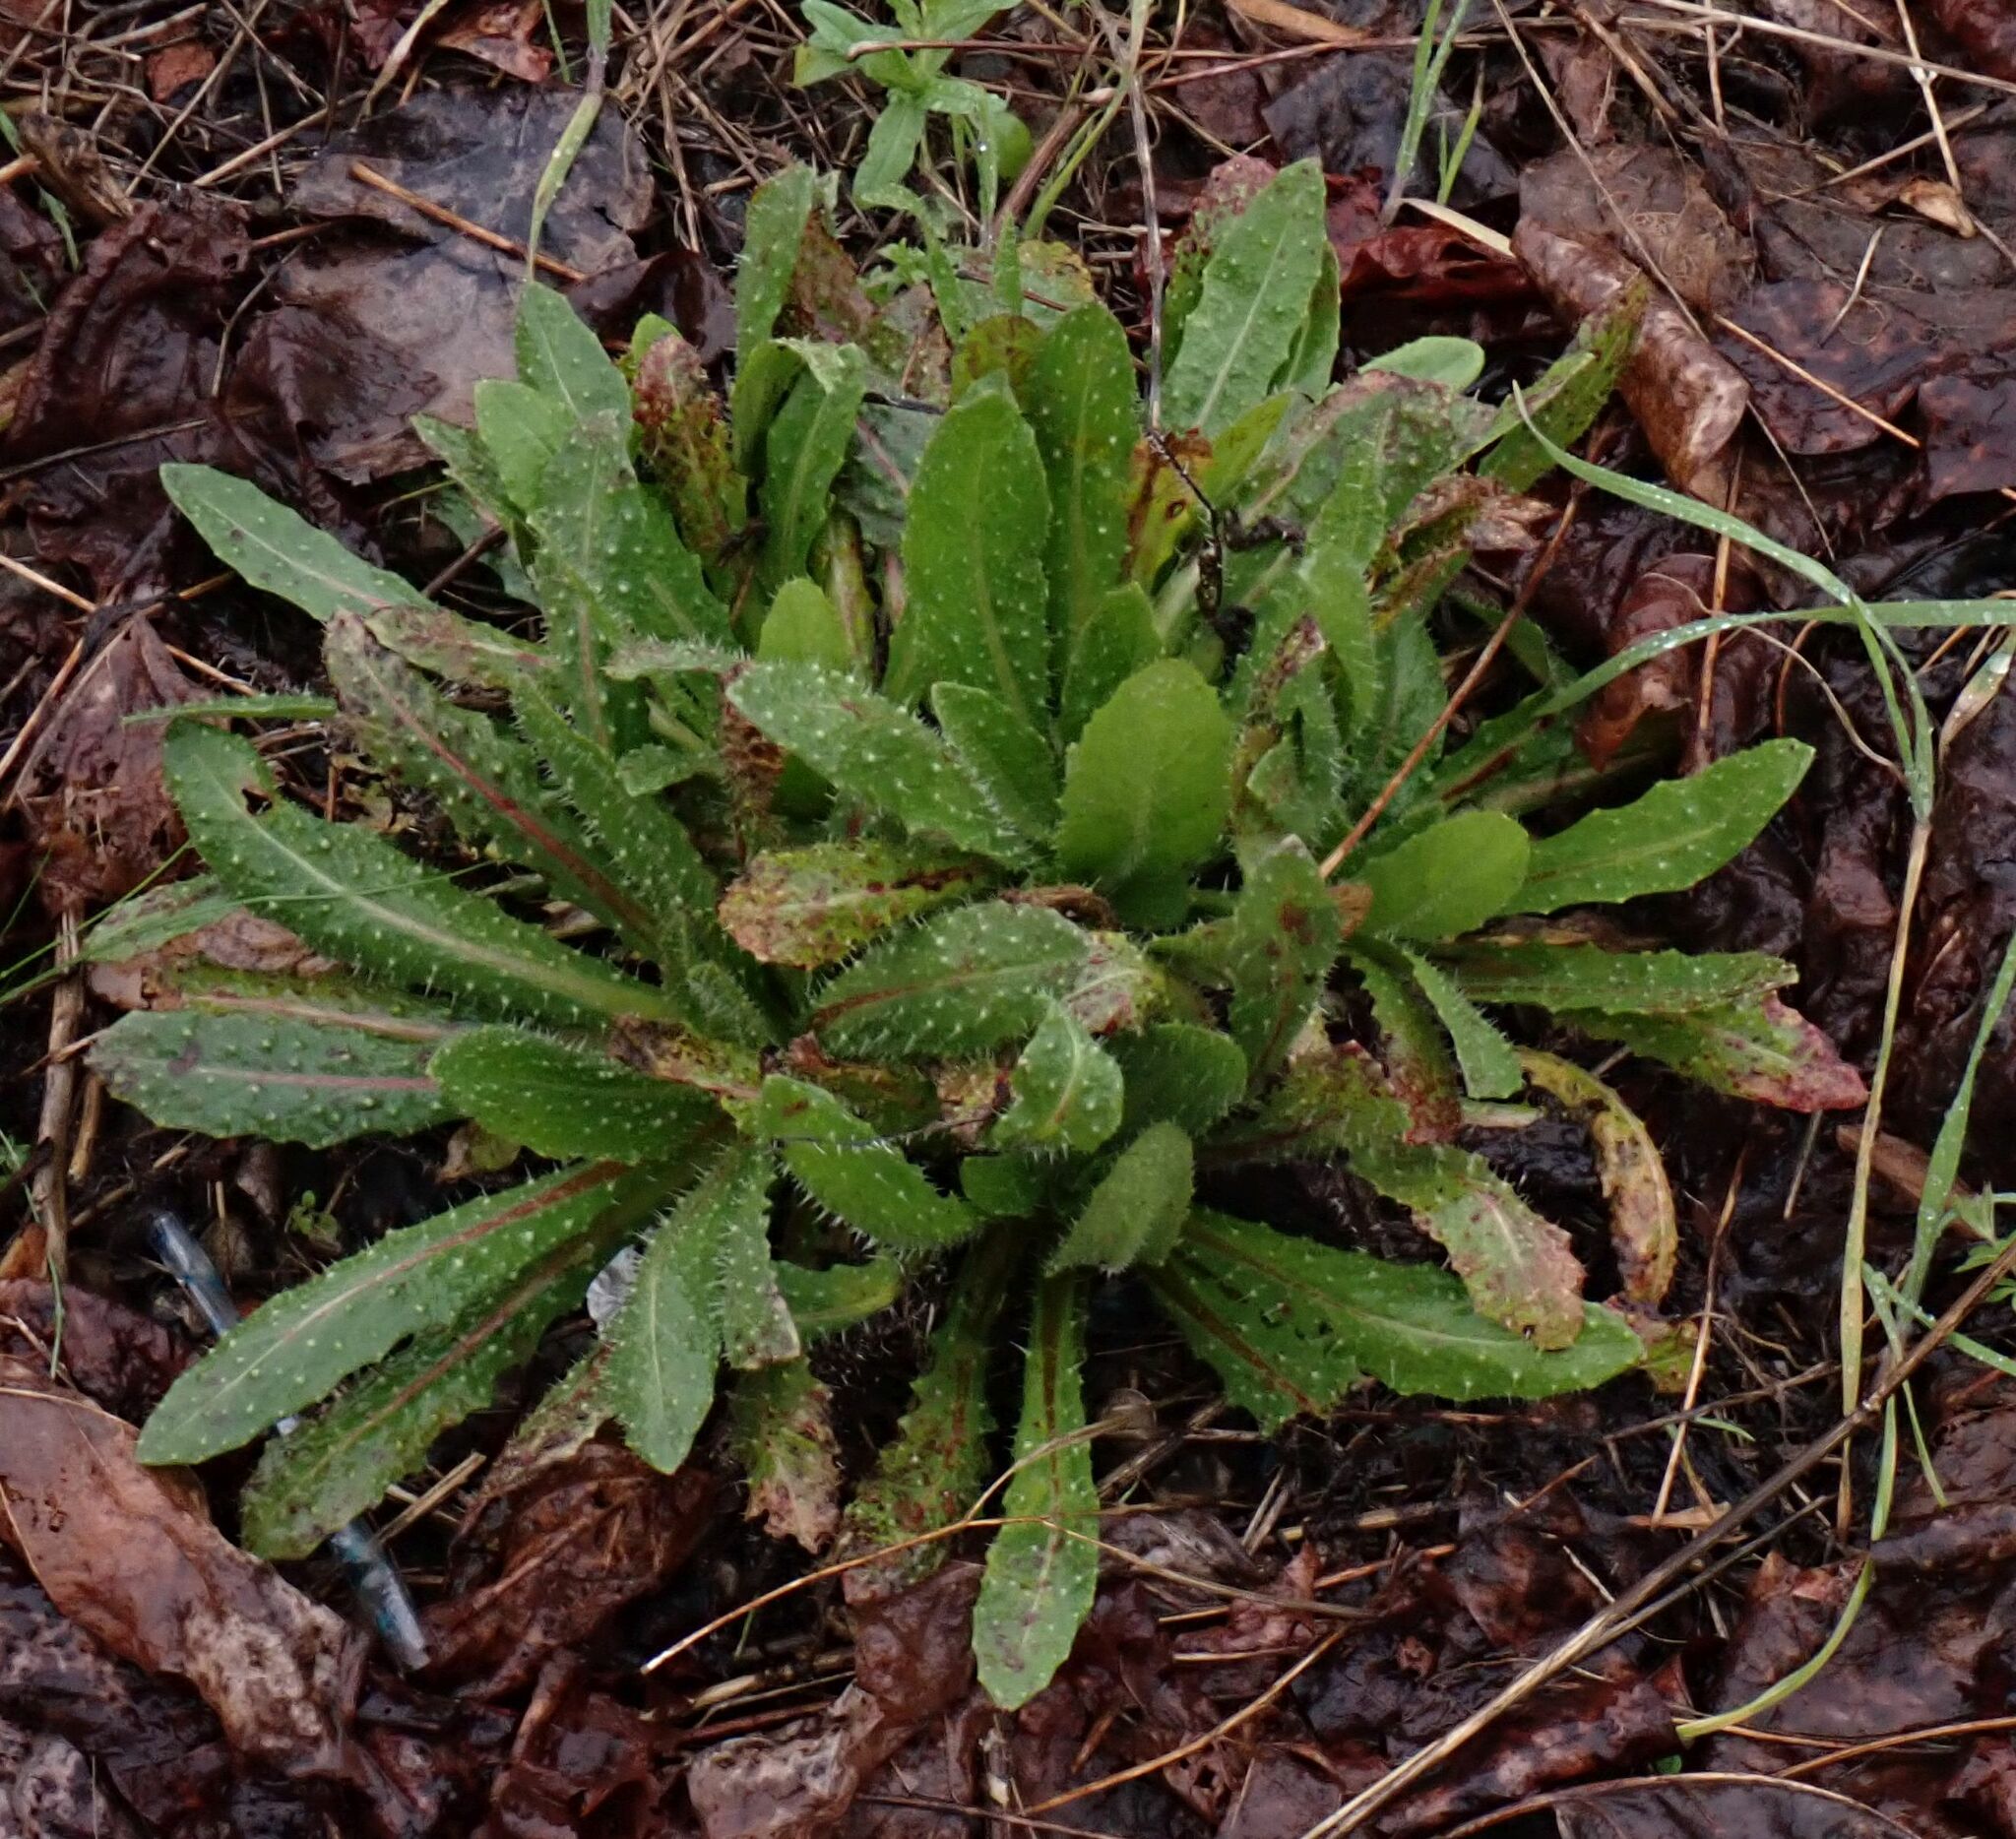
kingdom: Plantae
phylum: Tracheophyta
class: Magnoliopsida
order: Asterales
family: Asteraceae
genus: Helminthotheca
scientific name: Helminthotheca echioides
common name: Ox-tongue
